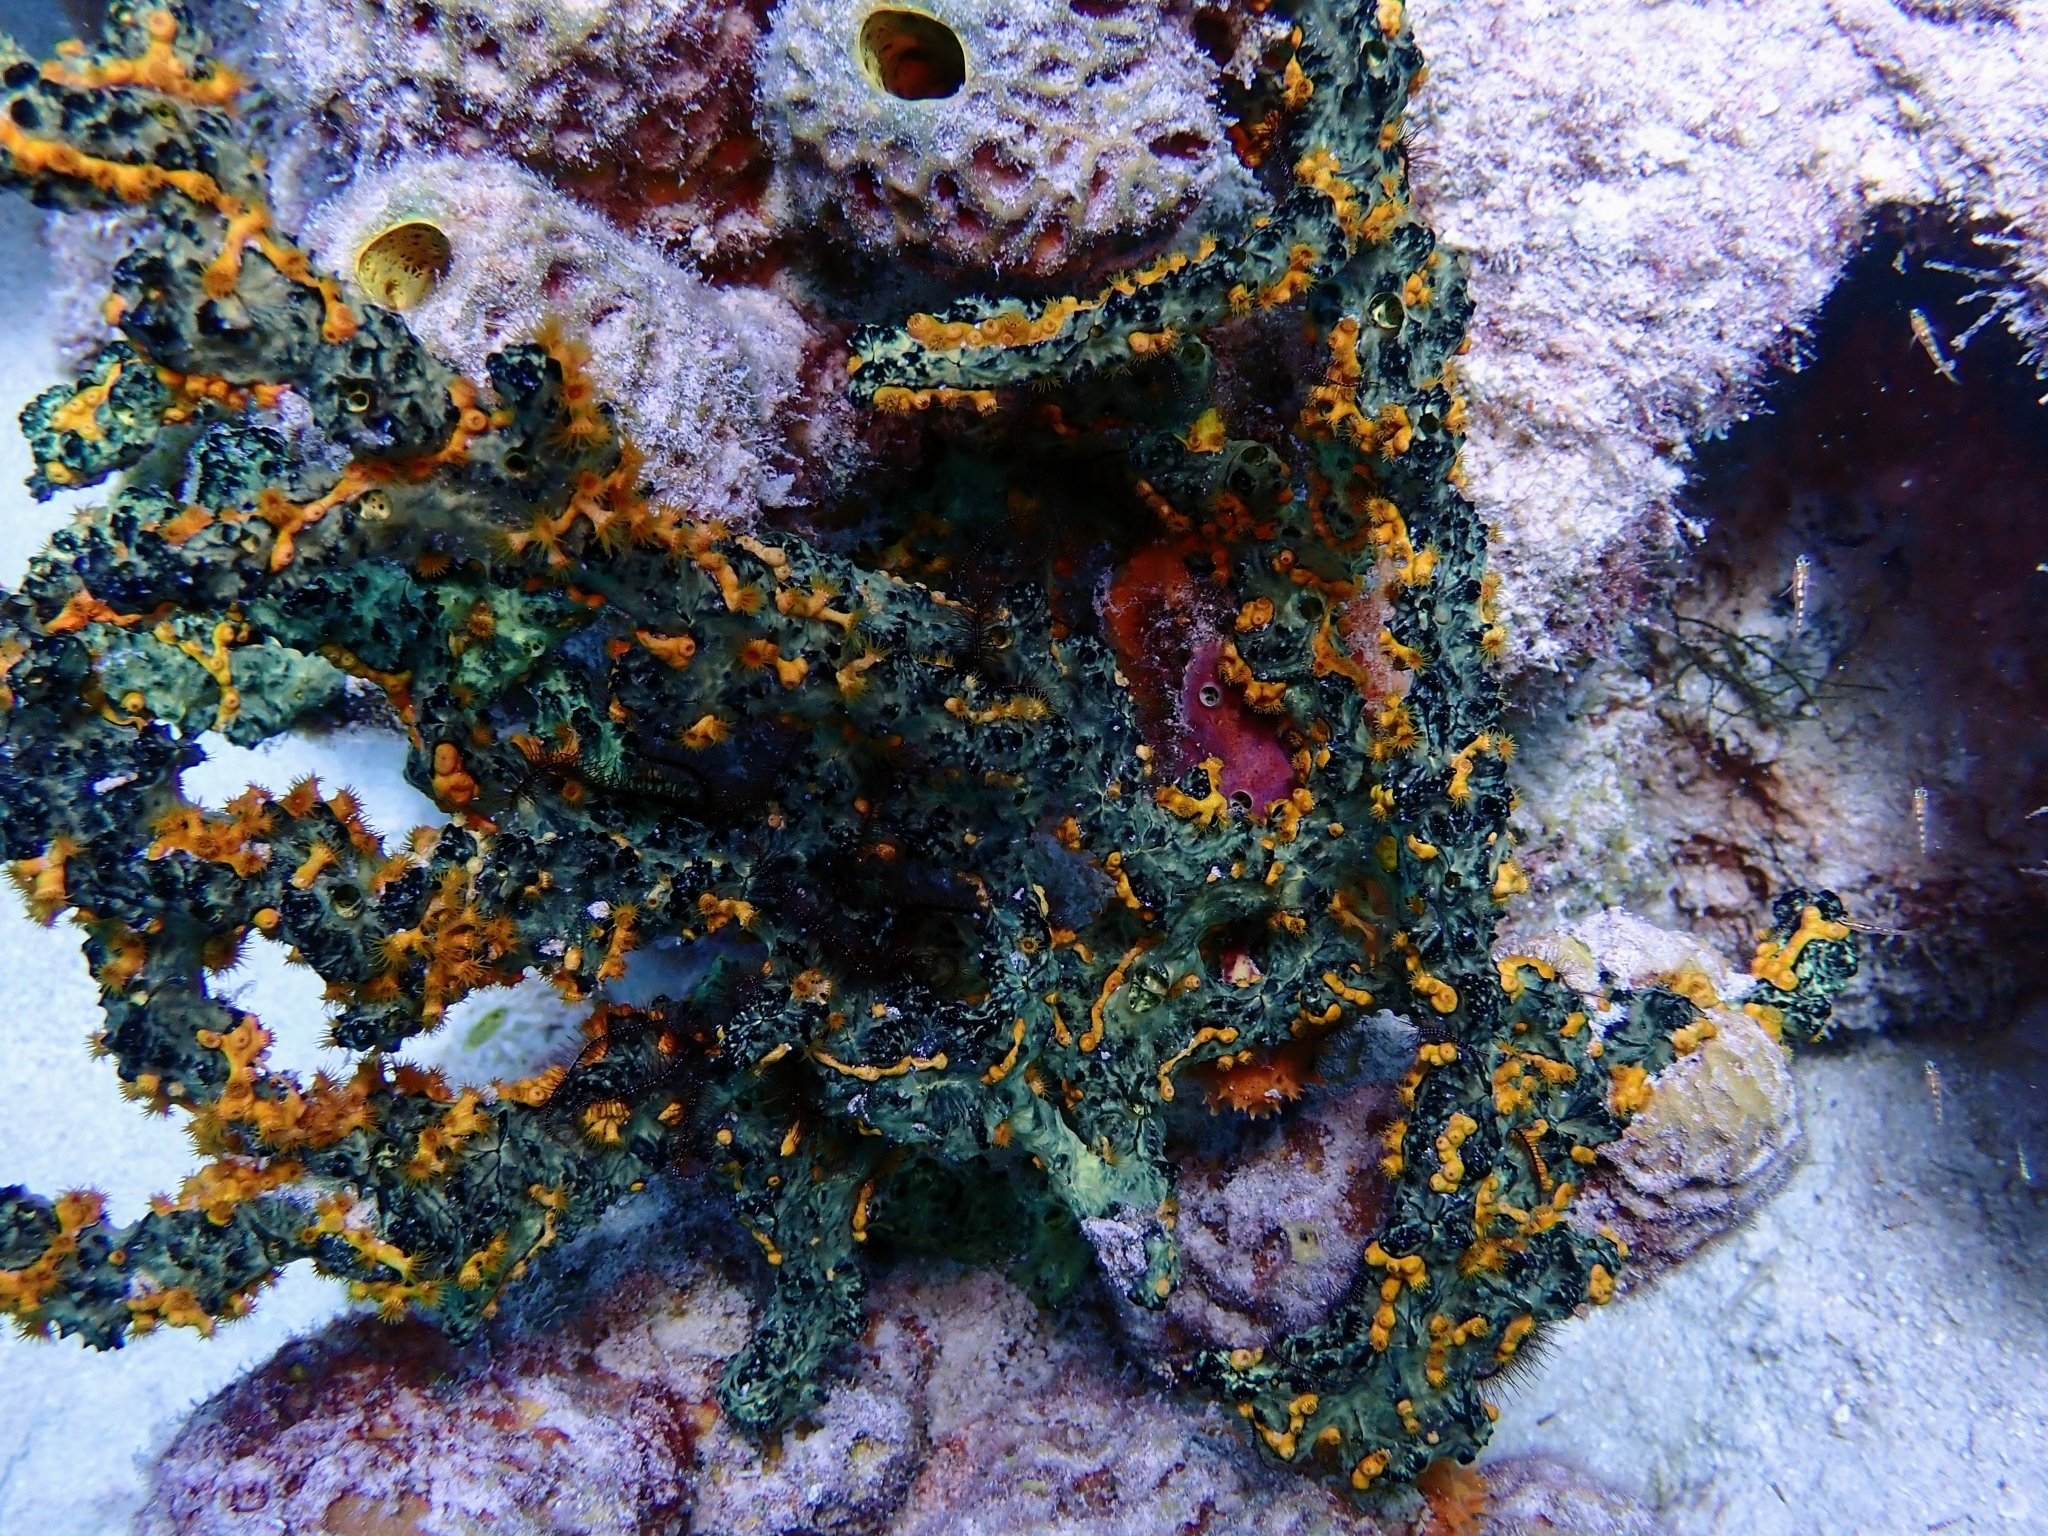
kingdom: Animalia
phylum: Porifera
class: Demospongiae
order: Poecilosclerida
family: Iotrochotidae
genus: Iotrochota
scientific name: Iotrochota birotulata
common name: Purple bleeding sponge
